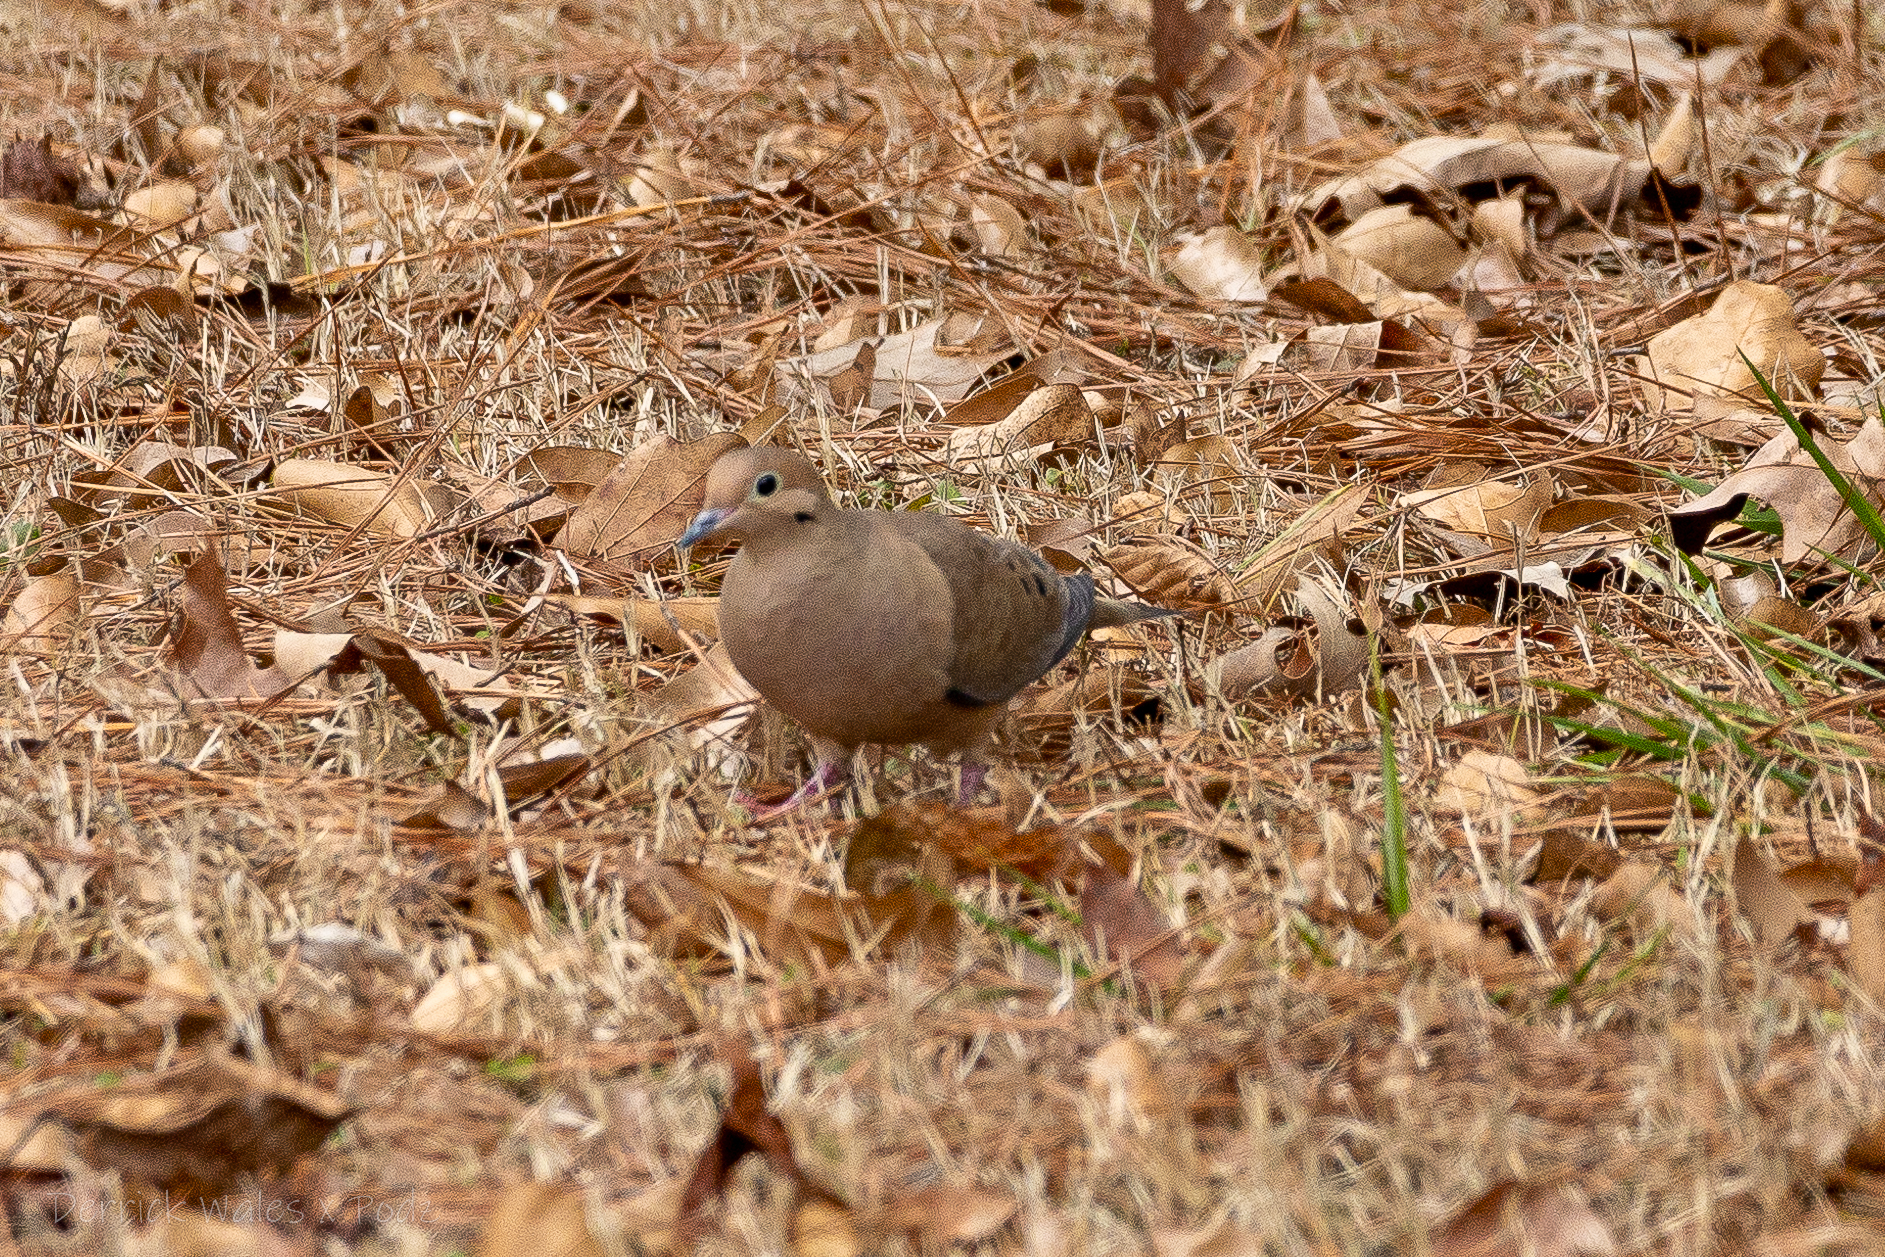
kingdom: Animalia
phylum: Chordata
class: Aves
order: Columbiformes
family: Columbidae
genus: Zenaida
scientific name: Zenaida macroura
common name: Mourning dove
